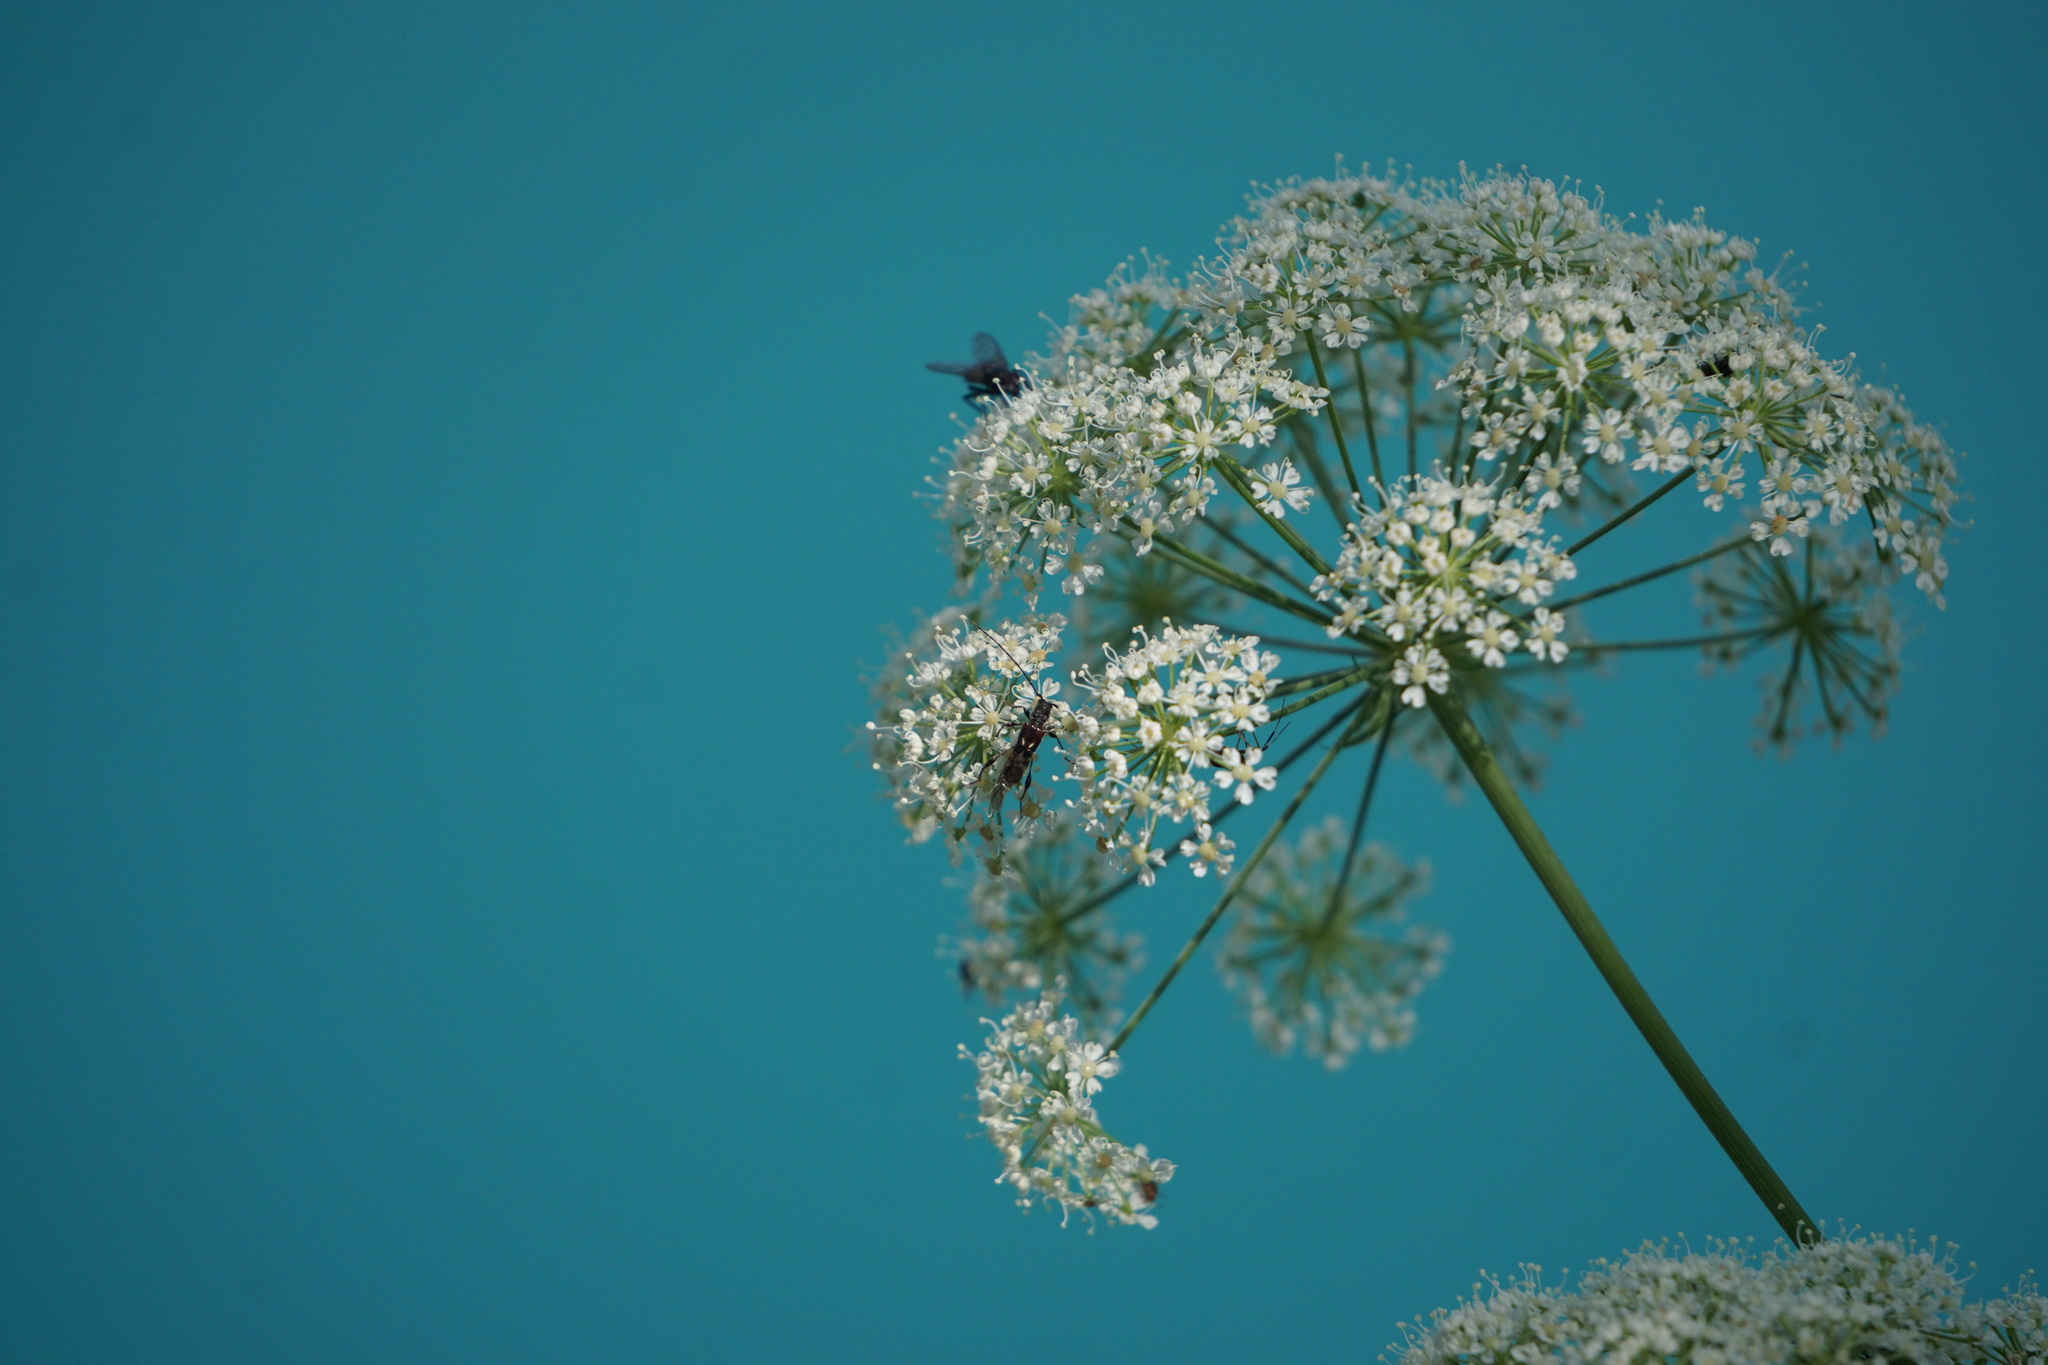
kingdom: Animalia
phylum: Arthropoda
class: Insecta
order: Coleoptera
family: Cerambycidae
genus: Molorchus
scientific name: Molorchus minor
